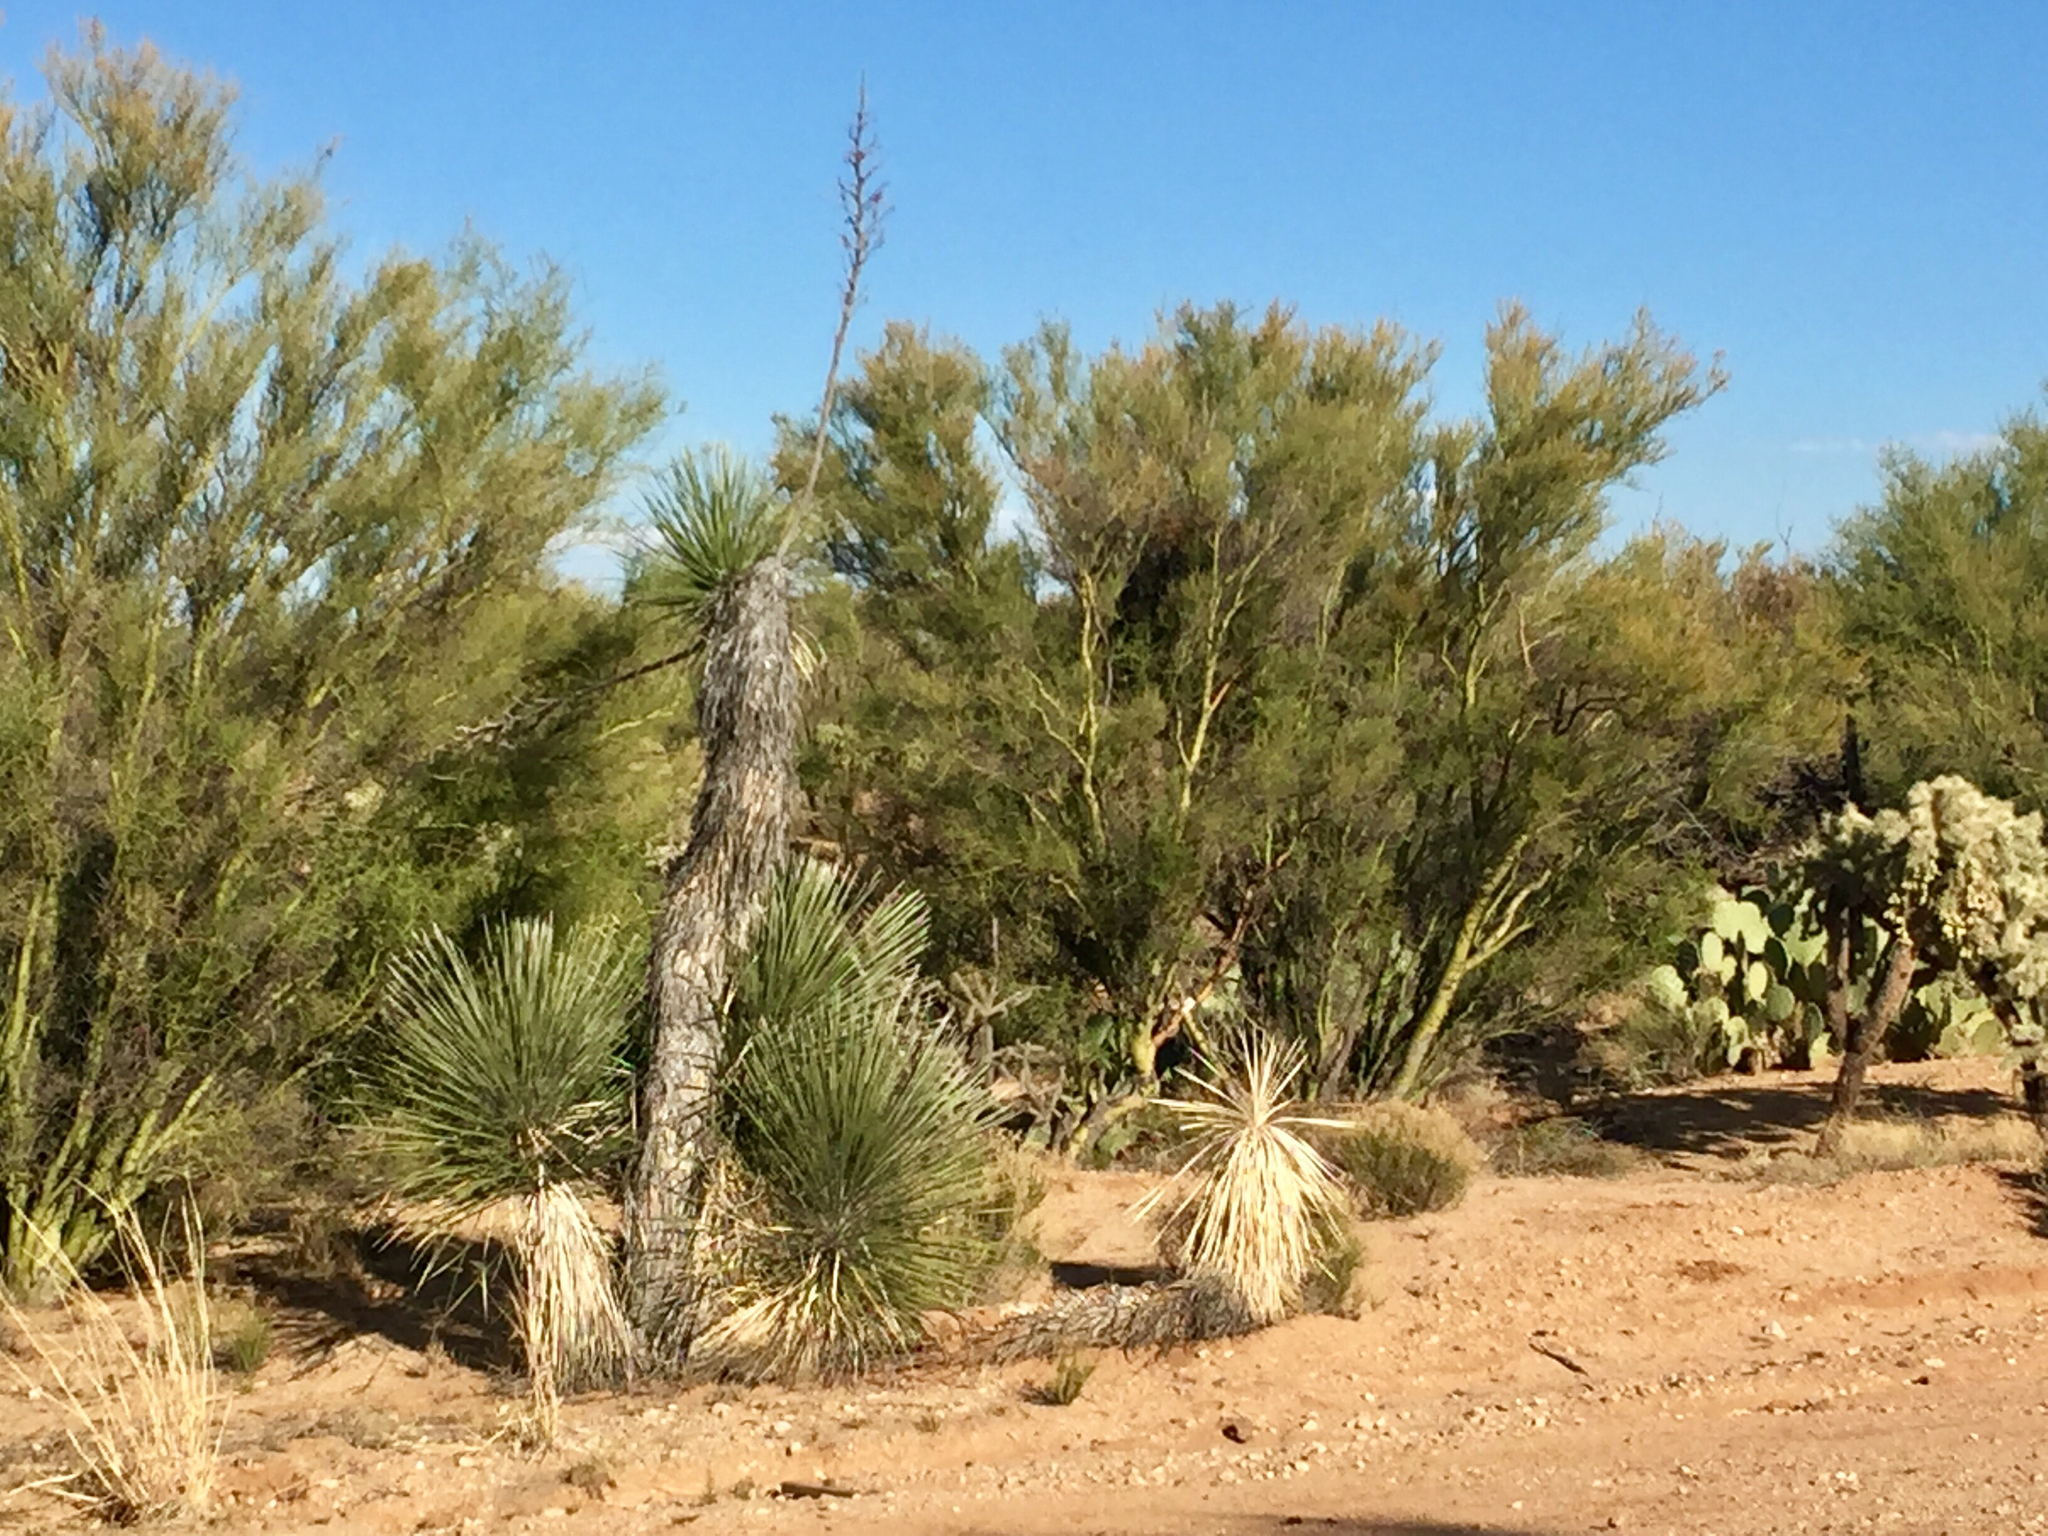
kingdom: Plantae
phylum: Tracheophyta
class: Liliopsida
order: Asparagales
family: Asparagaceae
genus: Yucca
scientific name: Yucca elata
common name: Palmella
